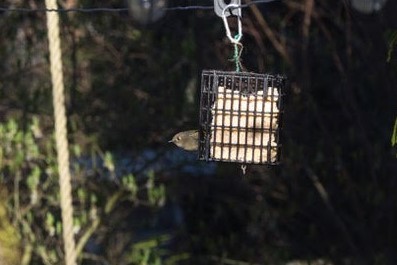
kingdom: Animalia
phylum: Chordata
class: Aves
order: Passeriformes
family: Regulidae
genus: Regulus
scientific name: Regulus calendula
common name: Ruby-crowned kinglet
